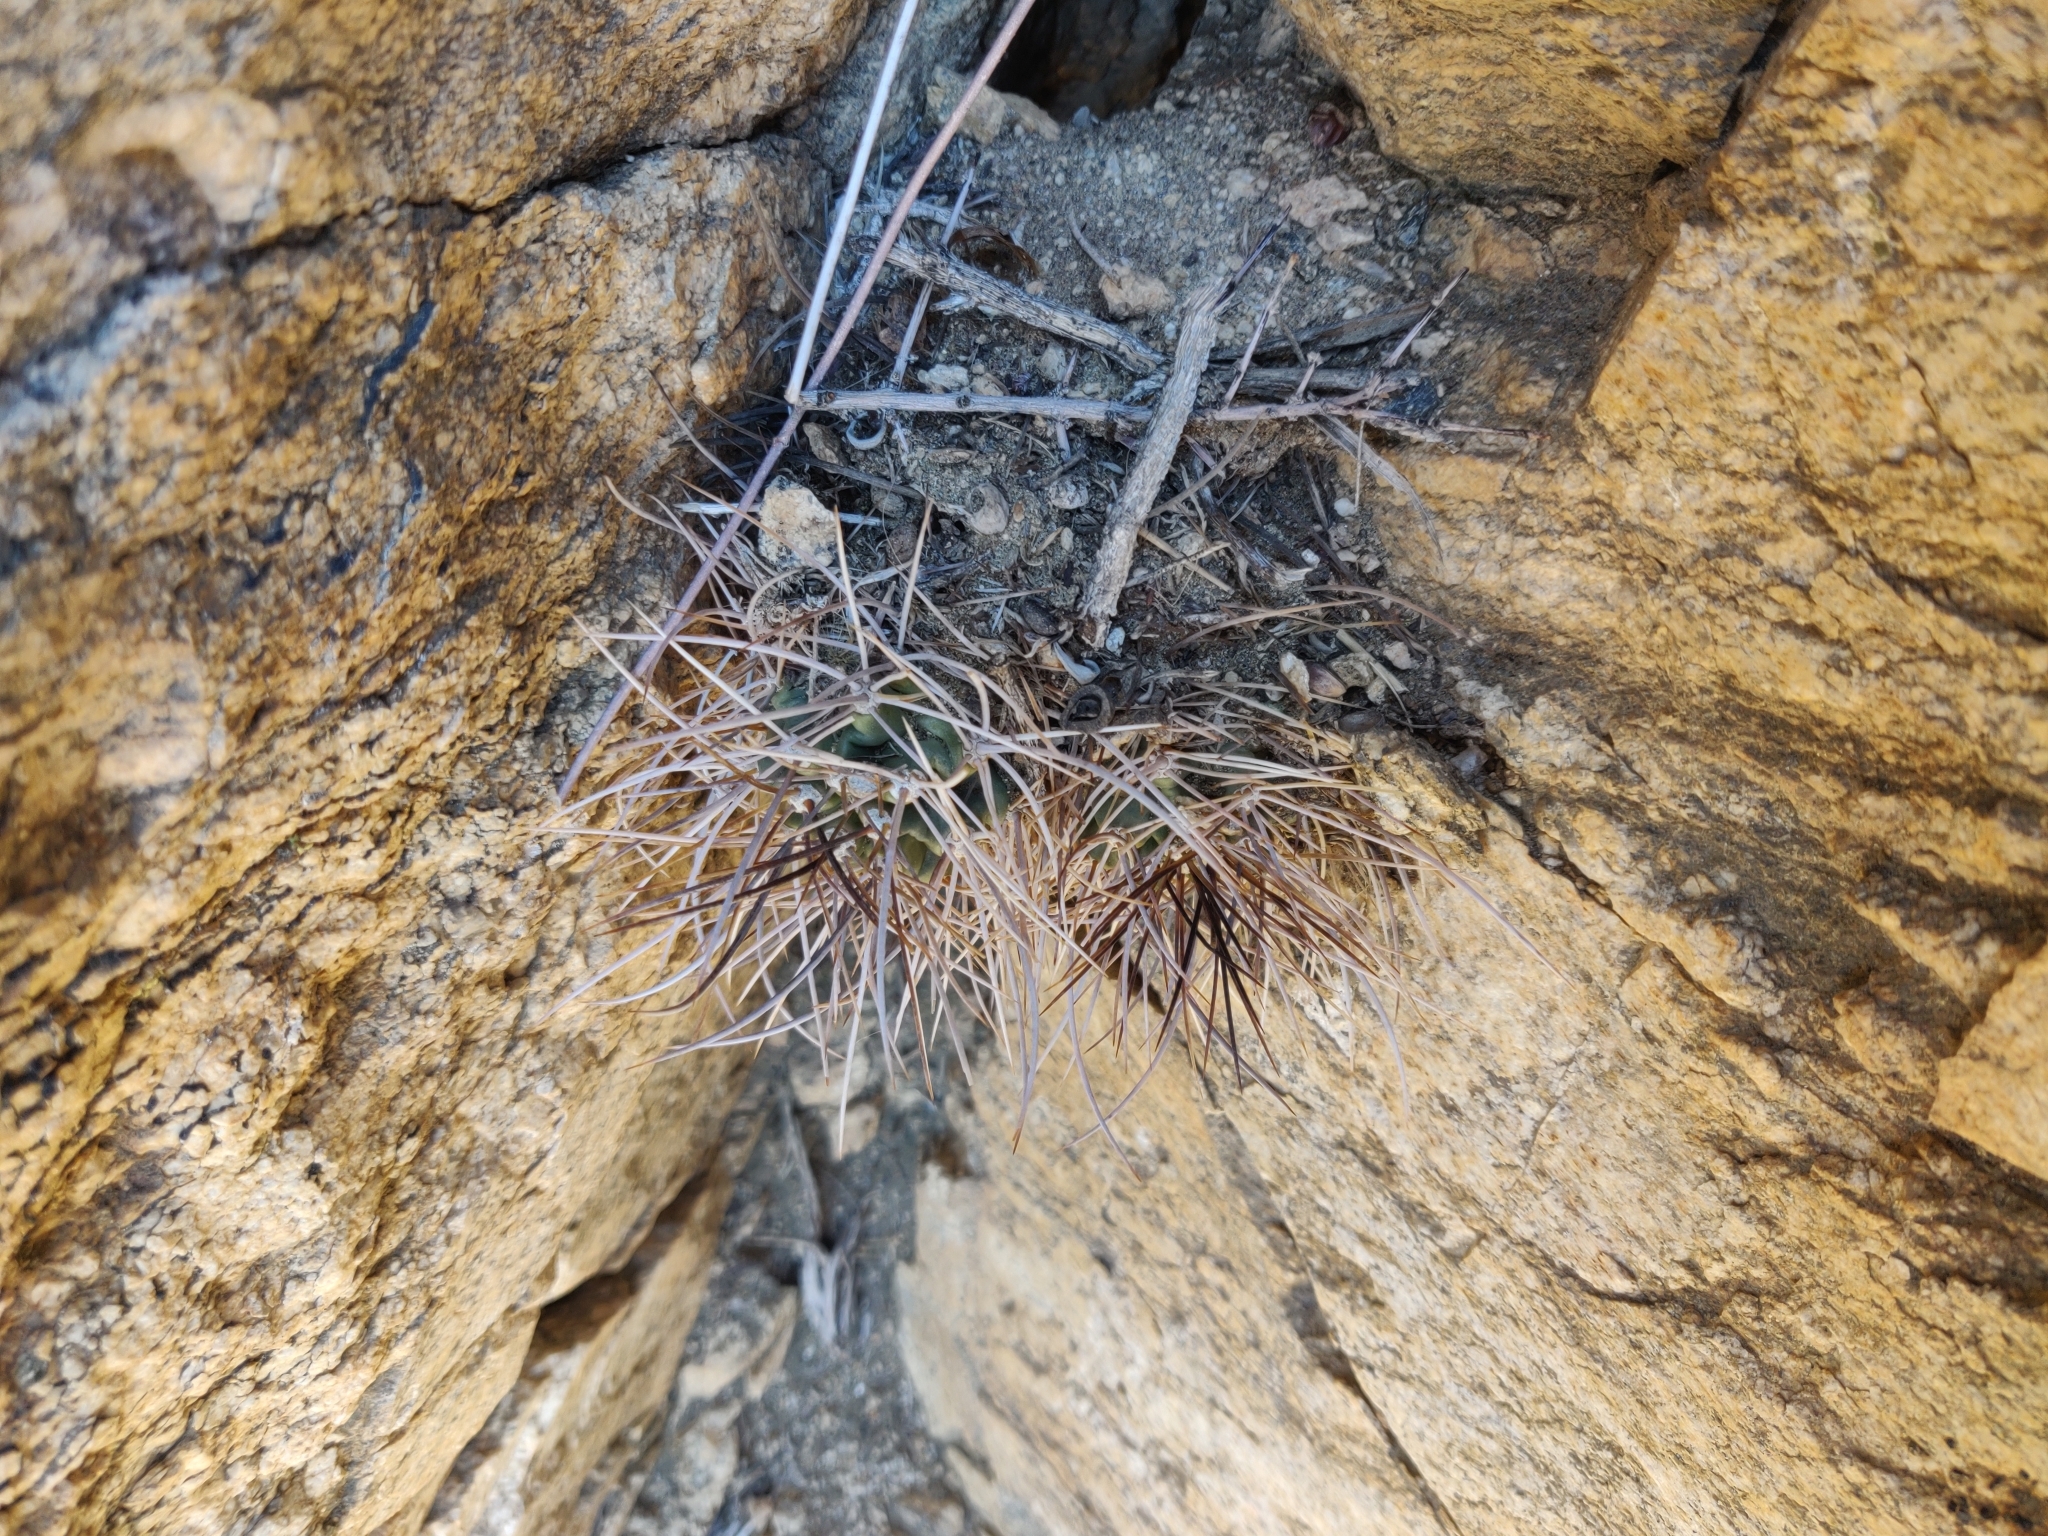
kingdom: Plantae
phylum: Tracheophyta
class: Magnoliopsida
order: Caryophyllales
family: Cactaceae
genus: Echinocereus
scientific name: Echinocereus triglochidiatus
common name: Claretcup hedgehog
